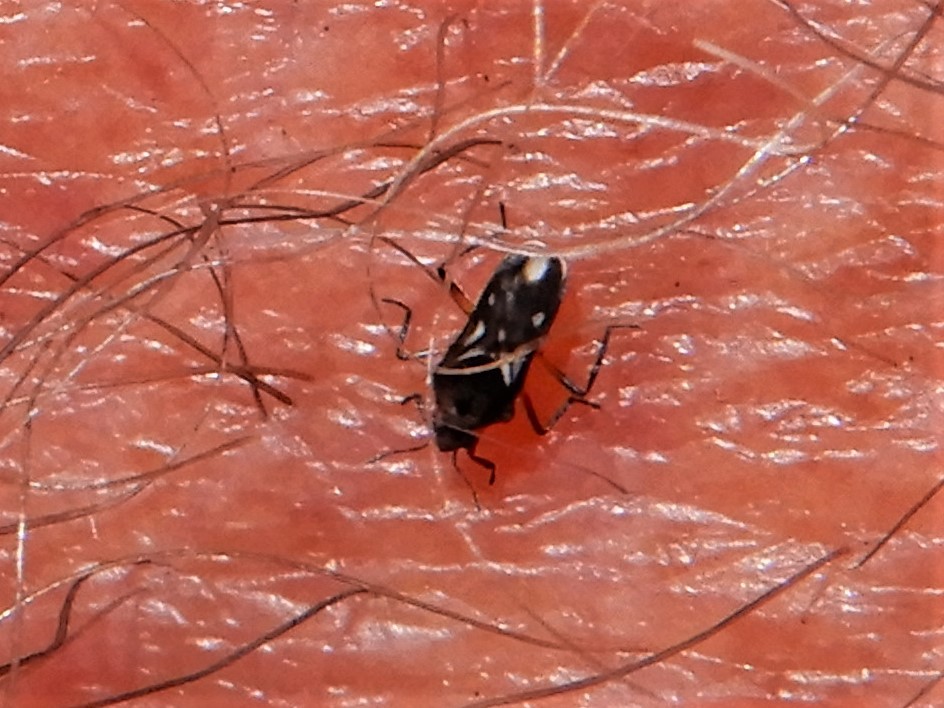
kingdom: Animalia
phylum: Arthropoda
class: Insecta
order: Hemiptera
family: Veliidae
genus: Microvelia
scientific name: Microvelia macgregori
